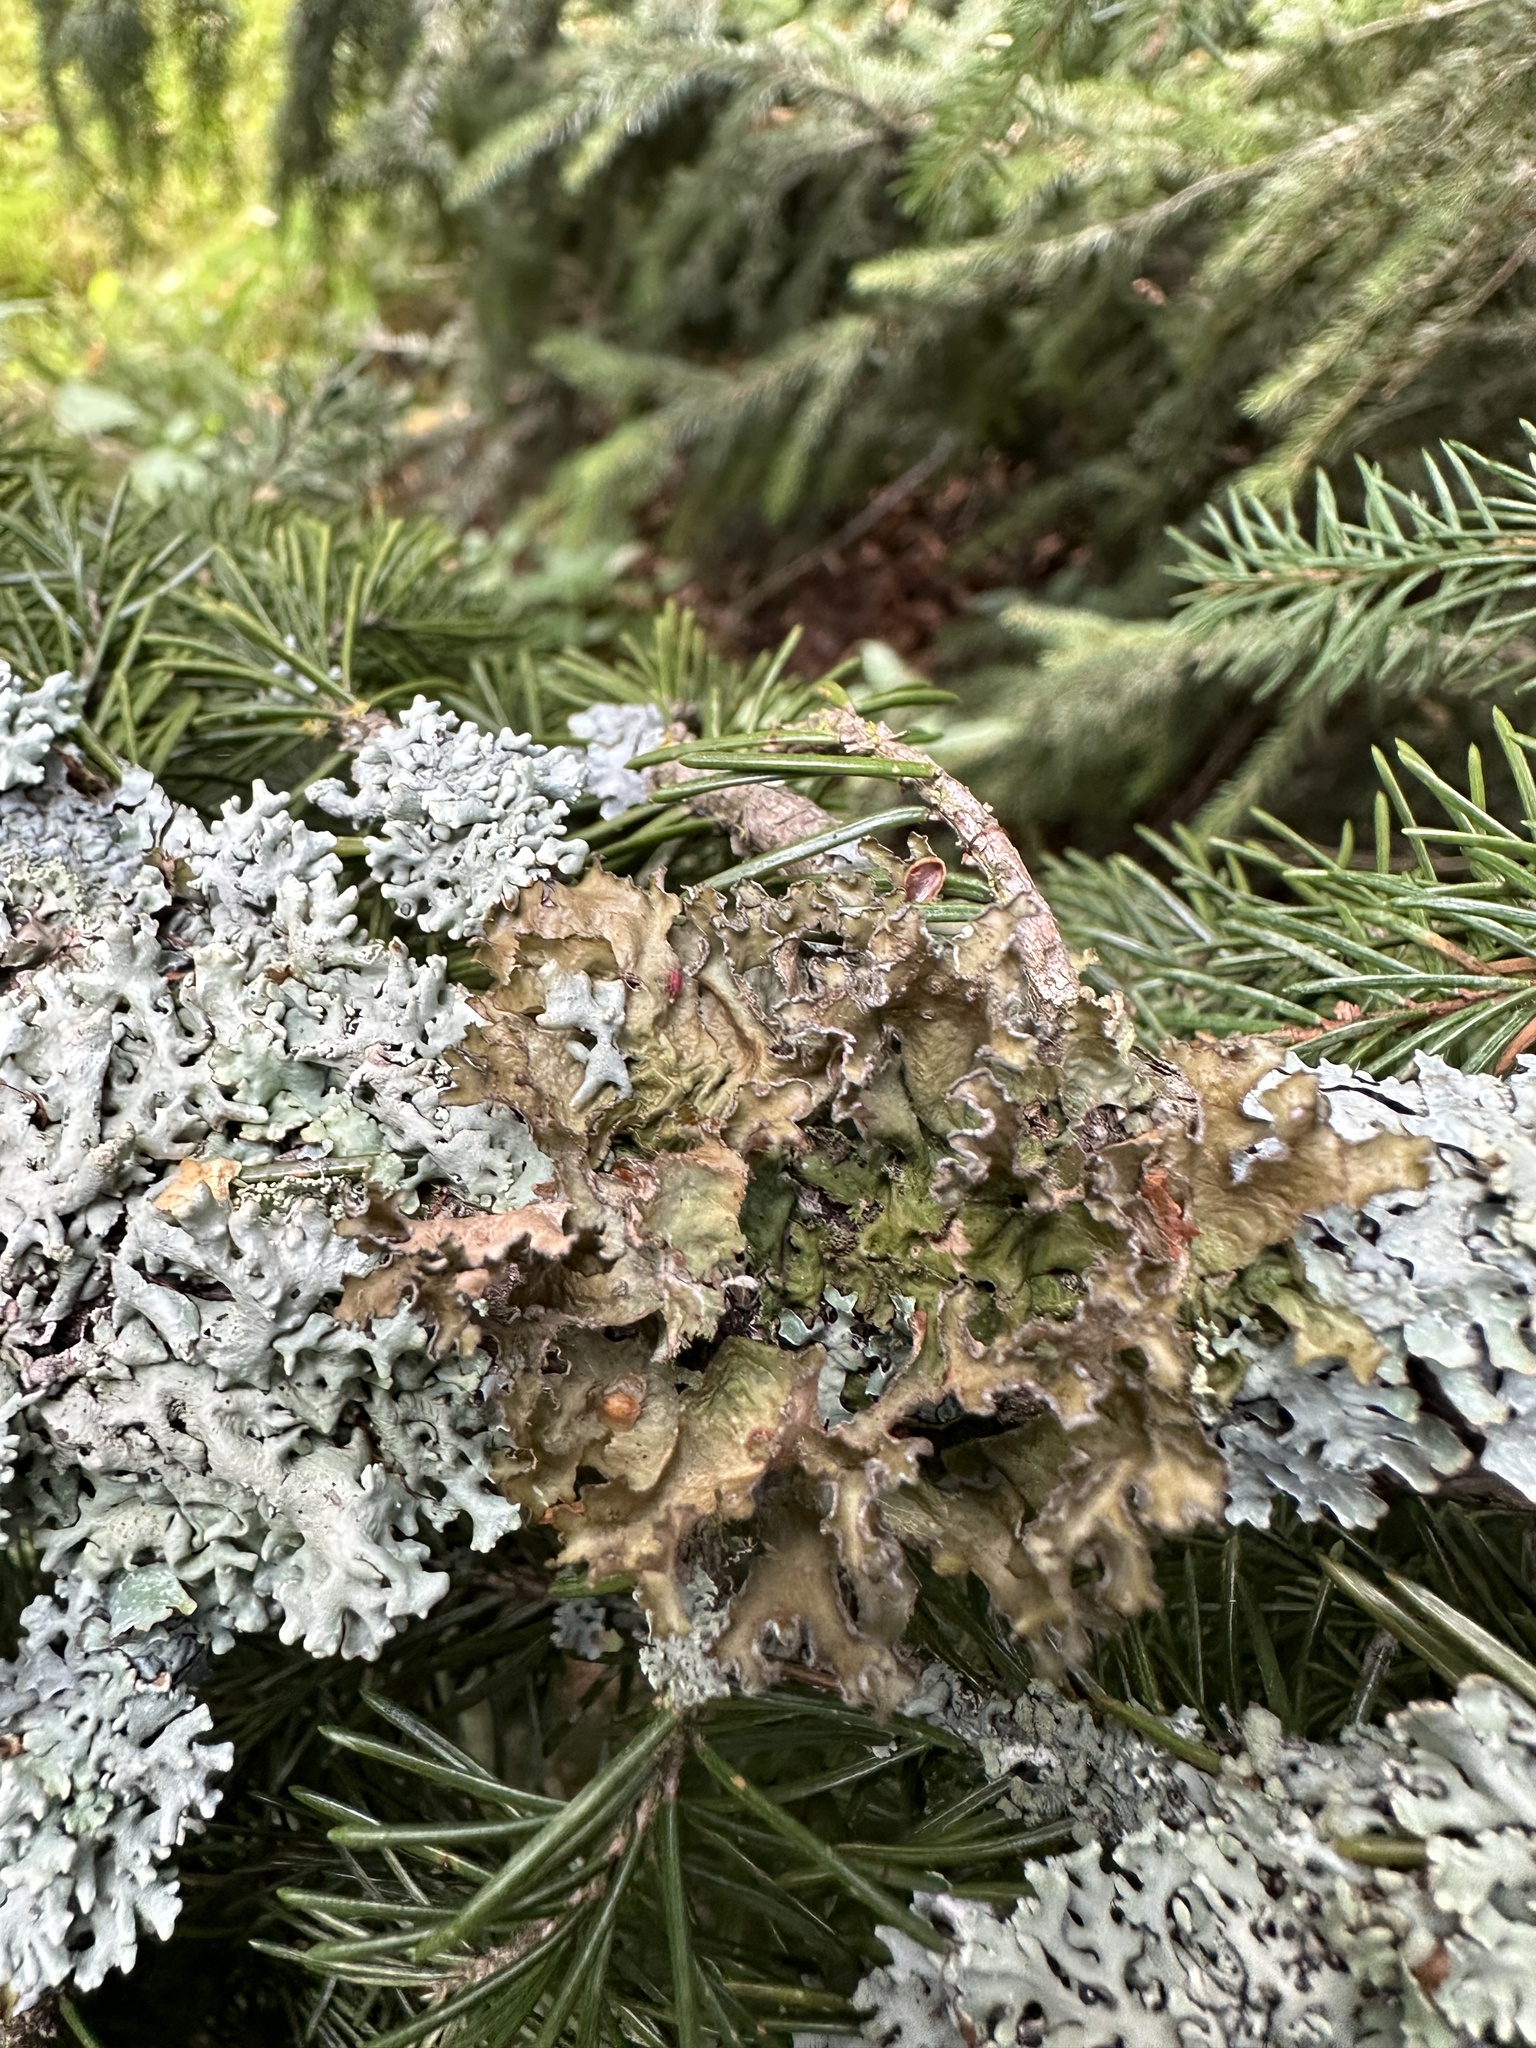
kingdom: Fungi
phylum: Ascomycota
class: Lecanoromycetes
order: Lecanorales
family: Parmeliaceae
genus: Nephromopsis
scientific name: Nephromopsis chlorophylla
